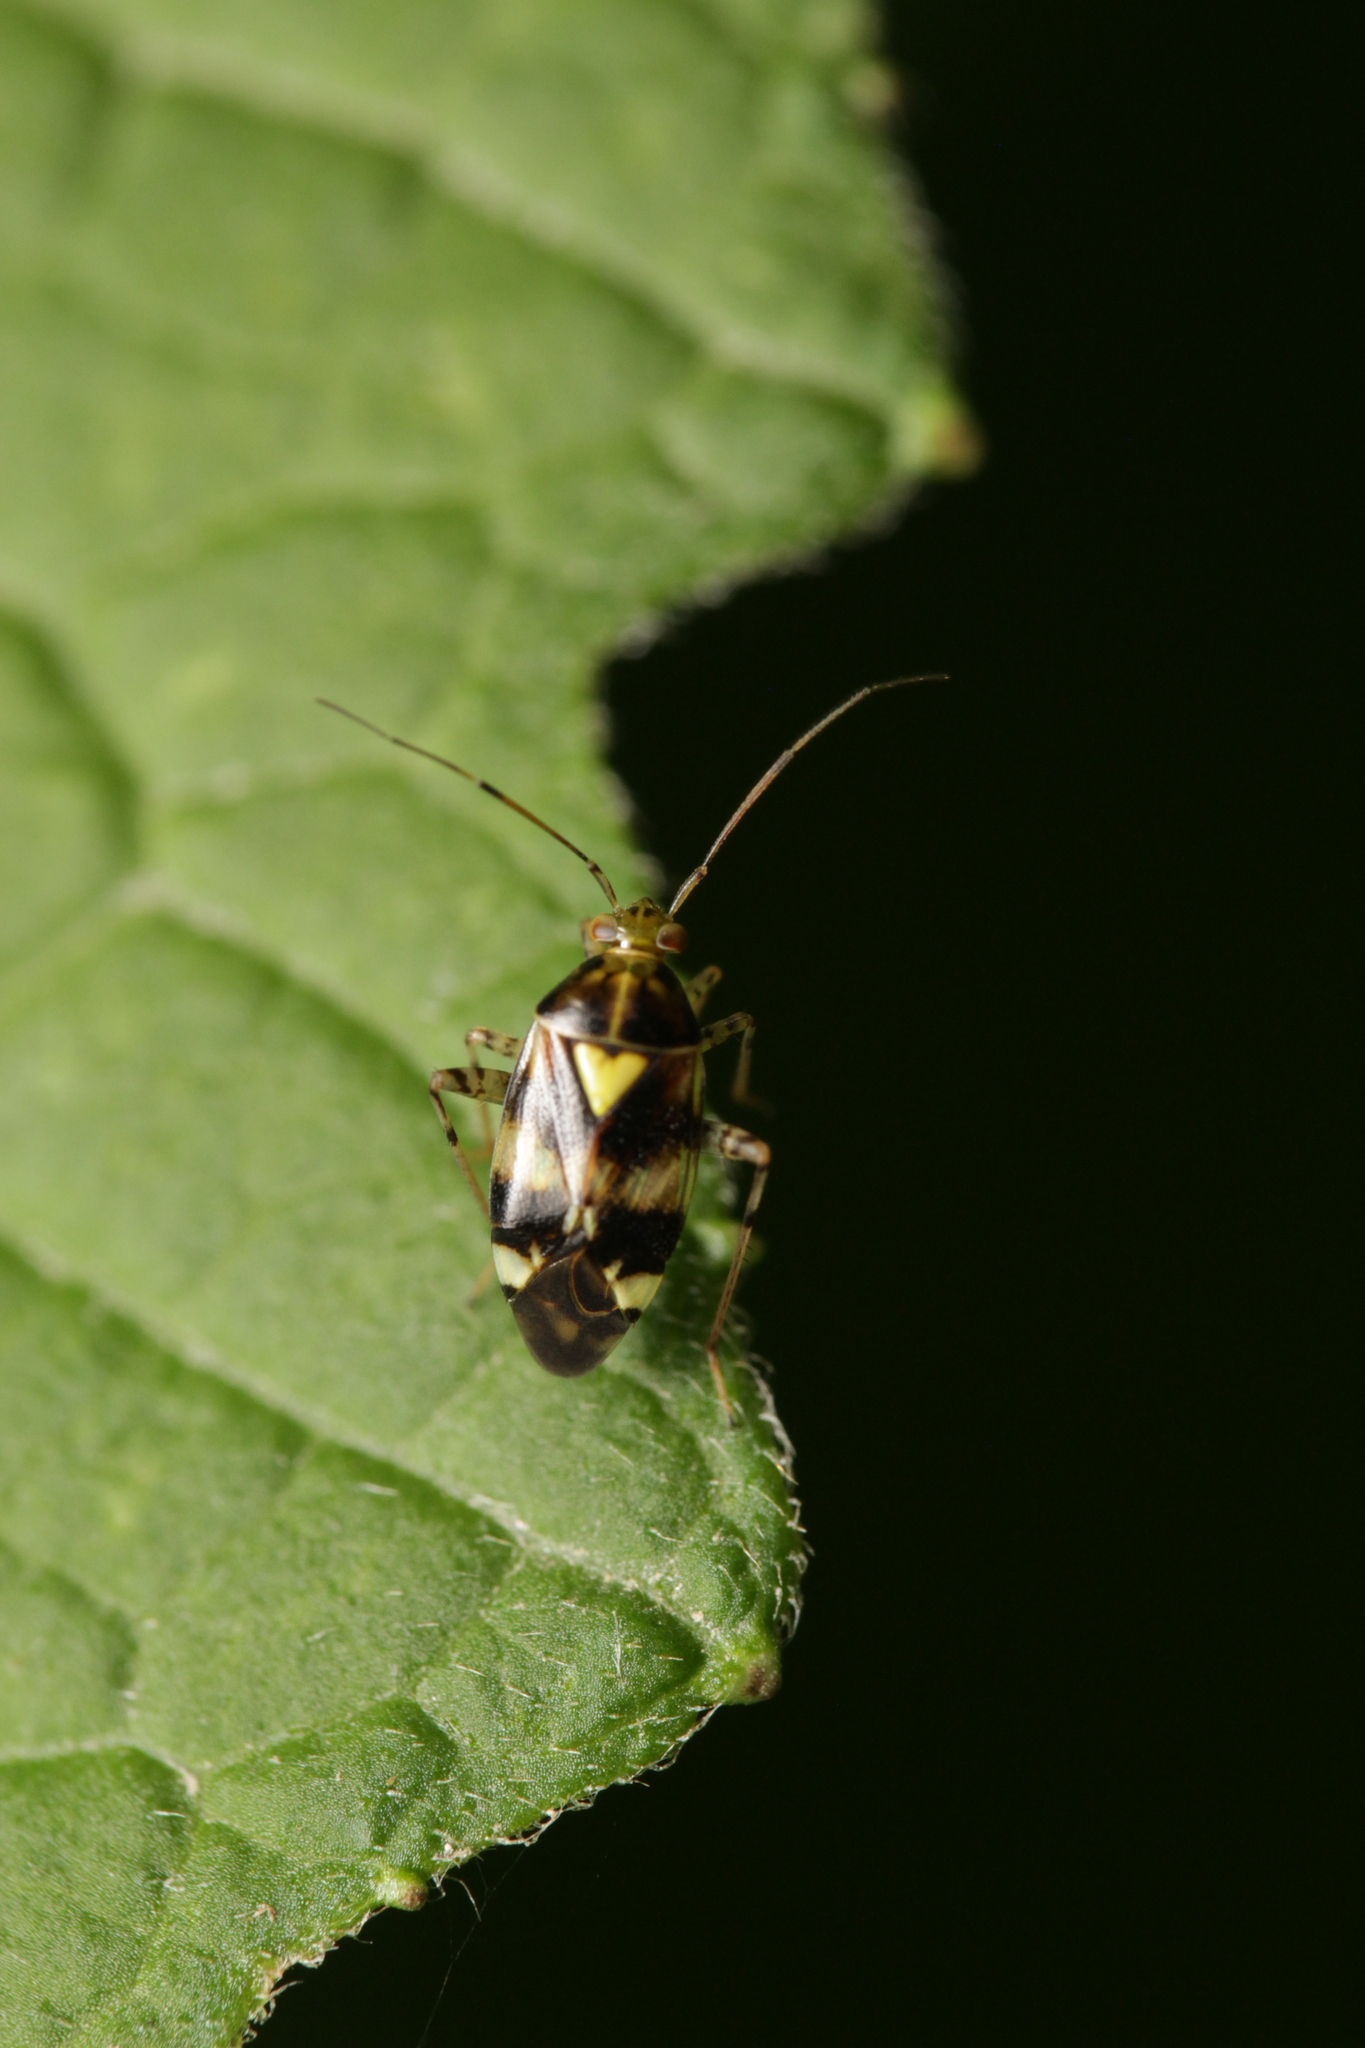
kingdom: Animalia
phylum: Arthropoda
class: Insecta
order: Hemiptera
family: Miridae
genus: Liocoris
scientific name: Liocoris tripustulatus
